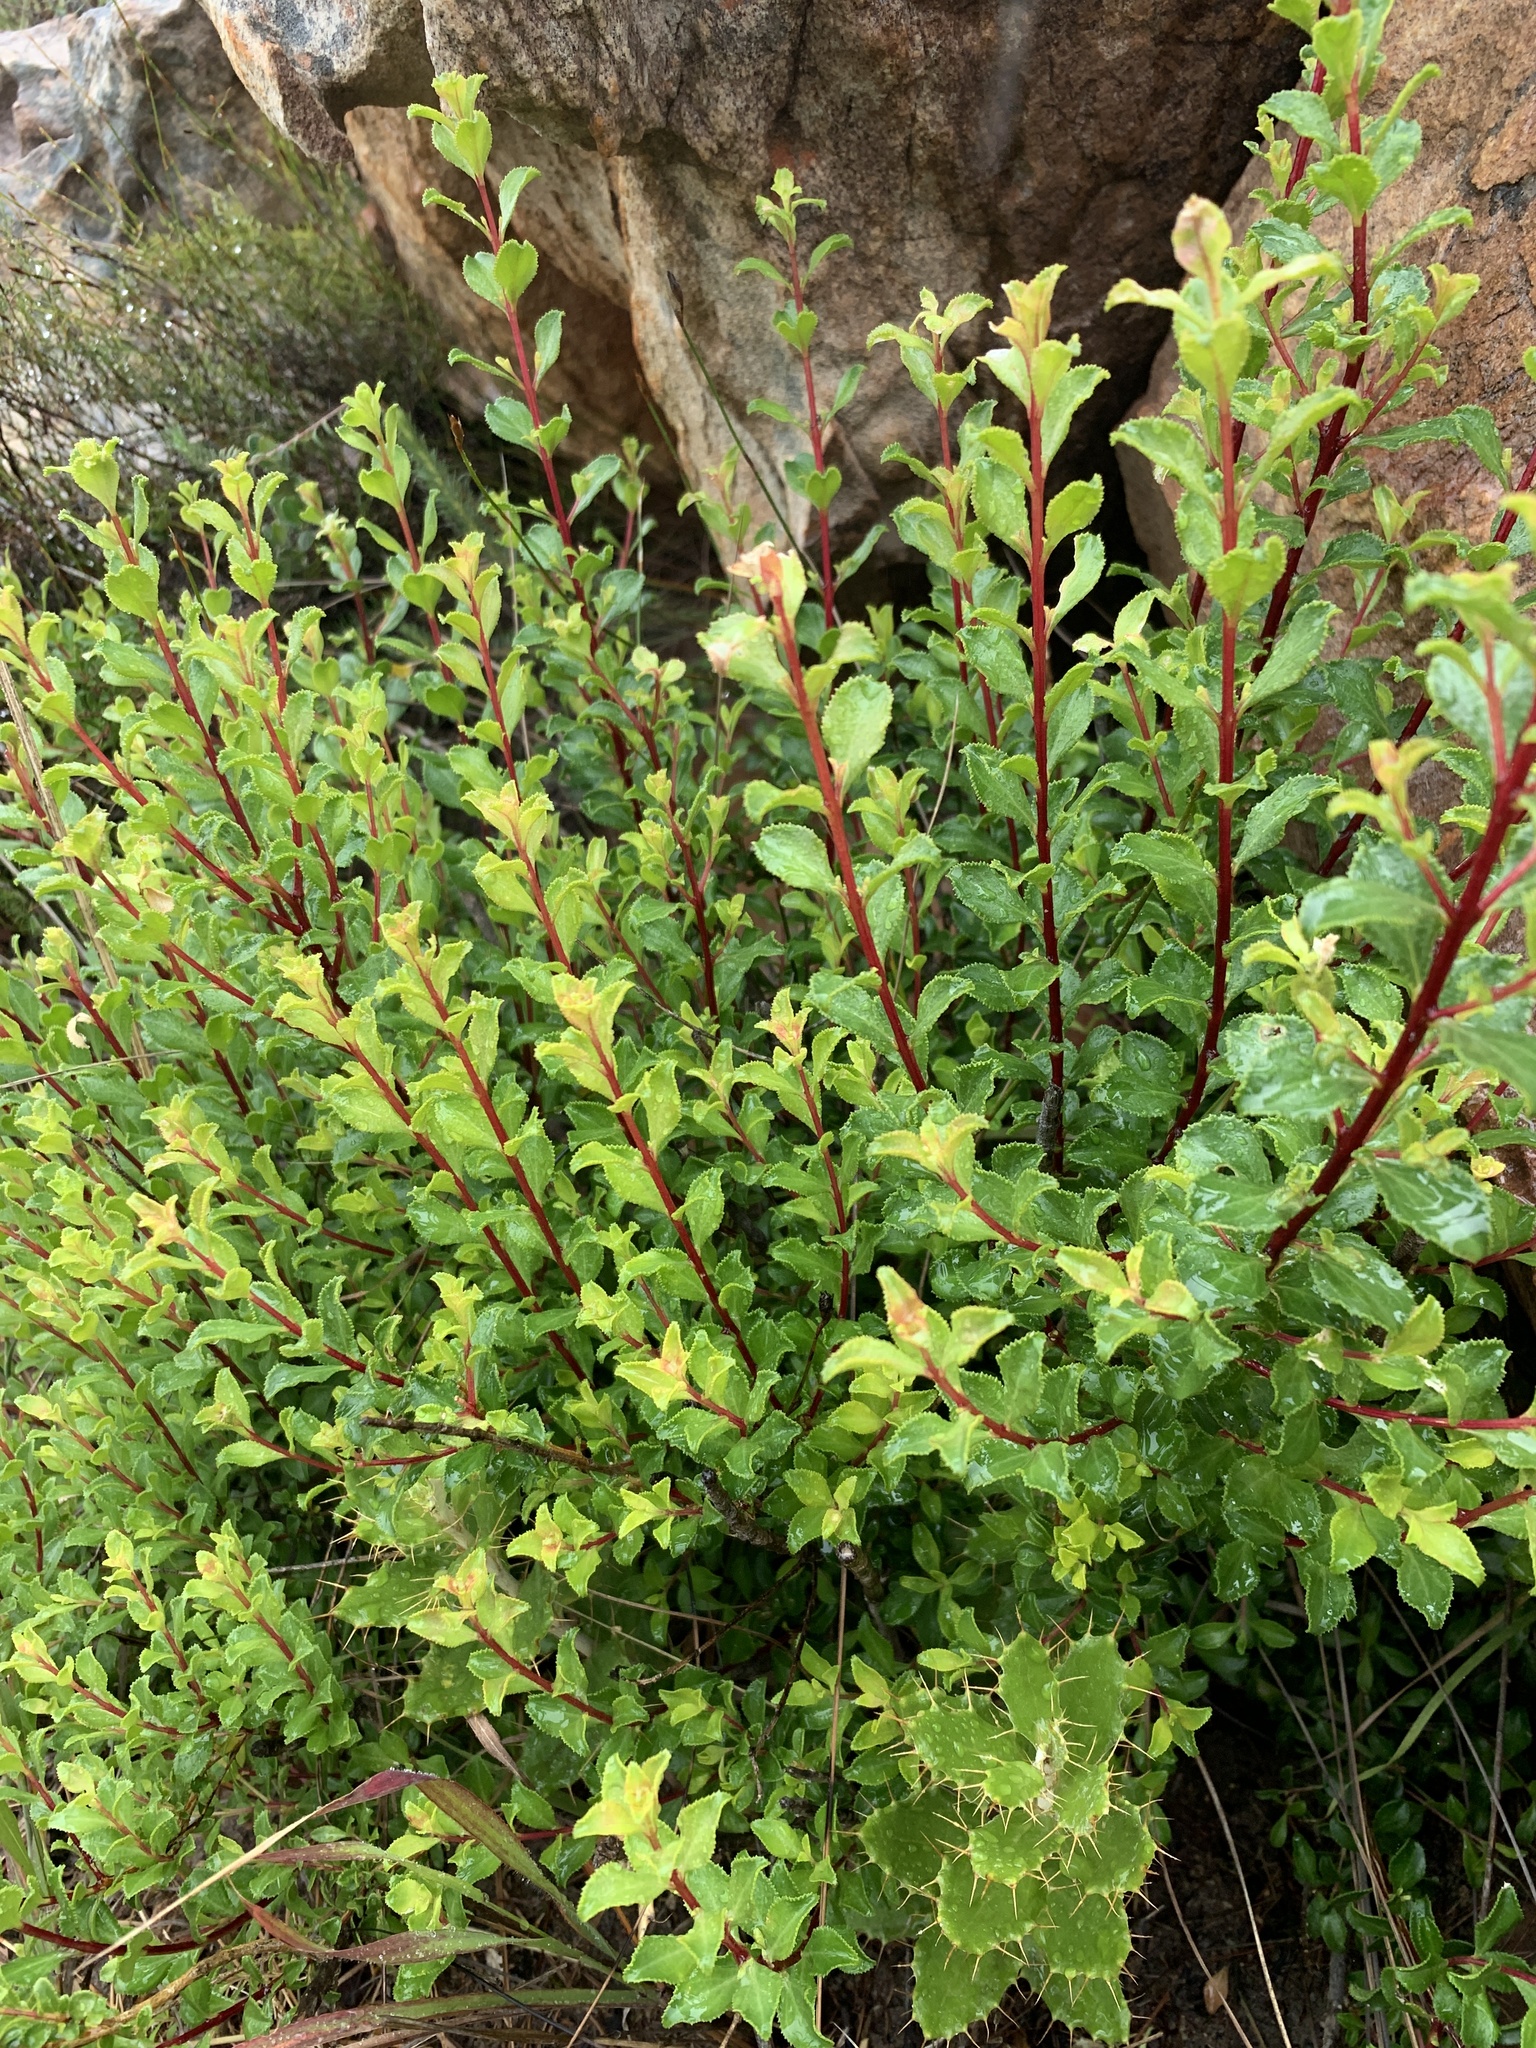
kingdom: Plantae
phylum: Tracheophyta
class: Magnoliopsida
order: Ericales
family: Ebenaceae
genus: Diospyros
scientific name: Diospyros glabra
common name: Fynbos star apple
